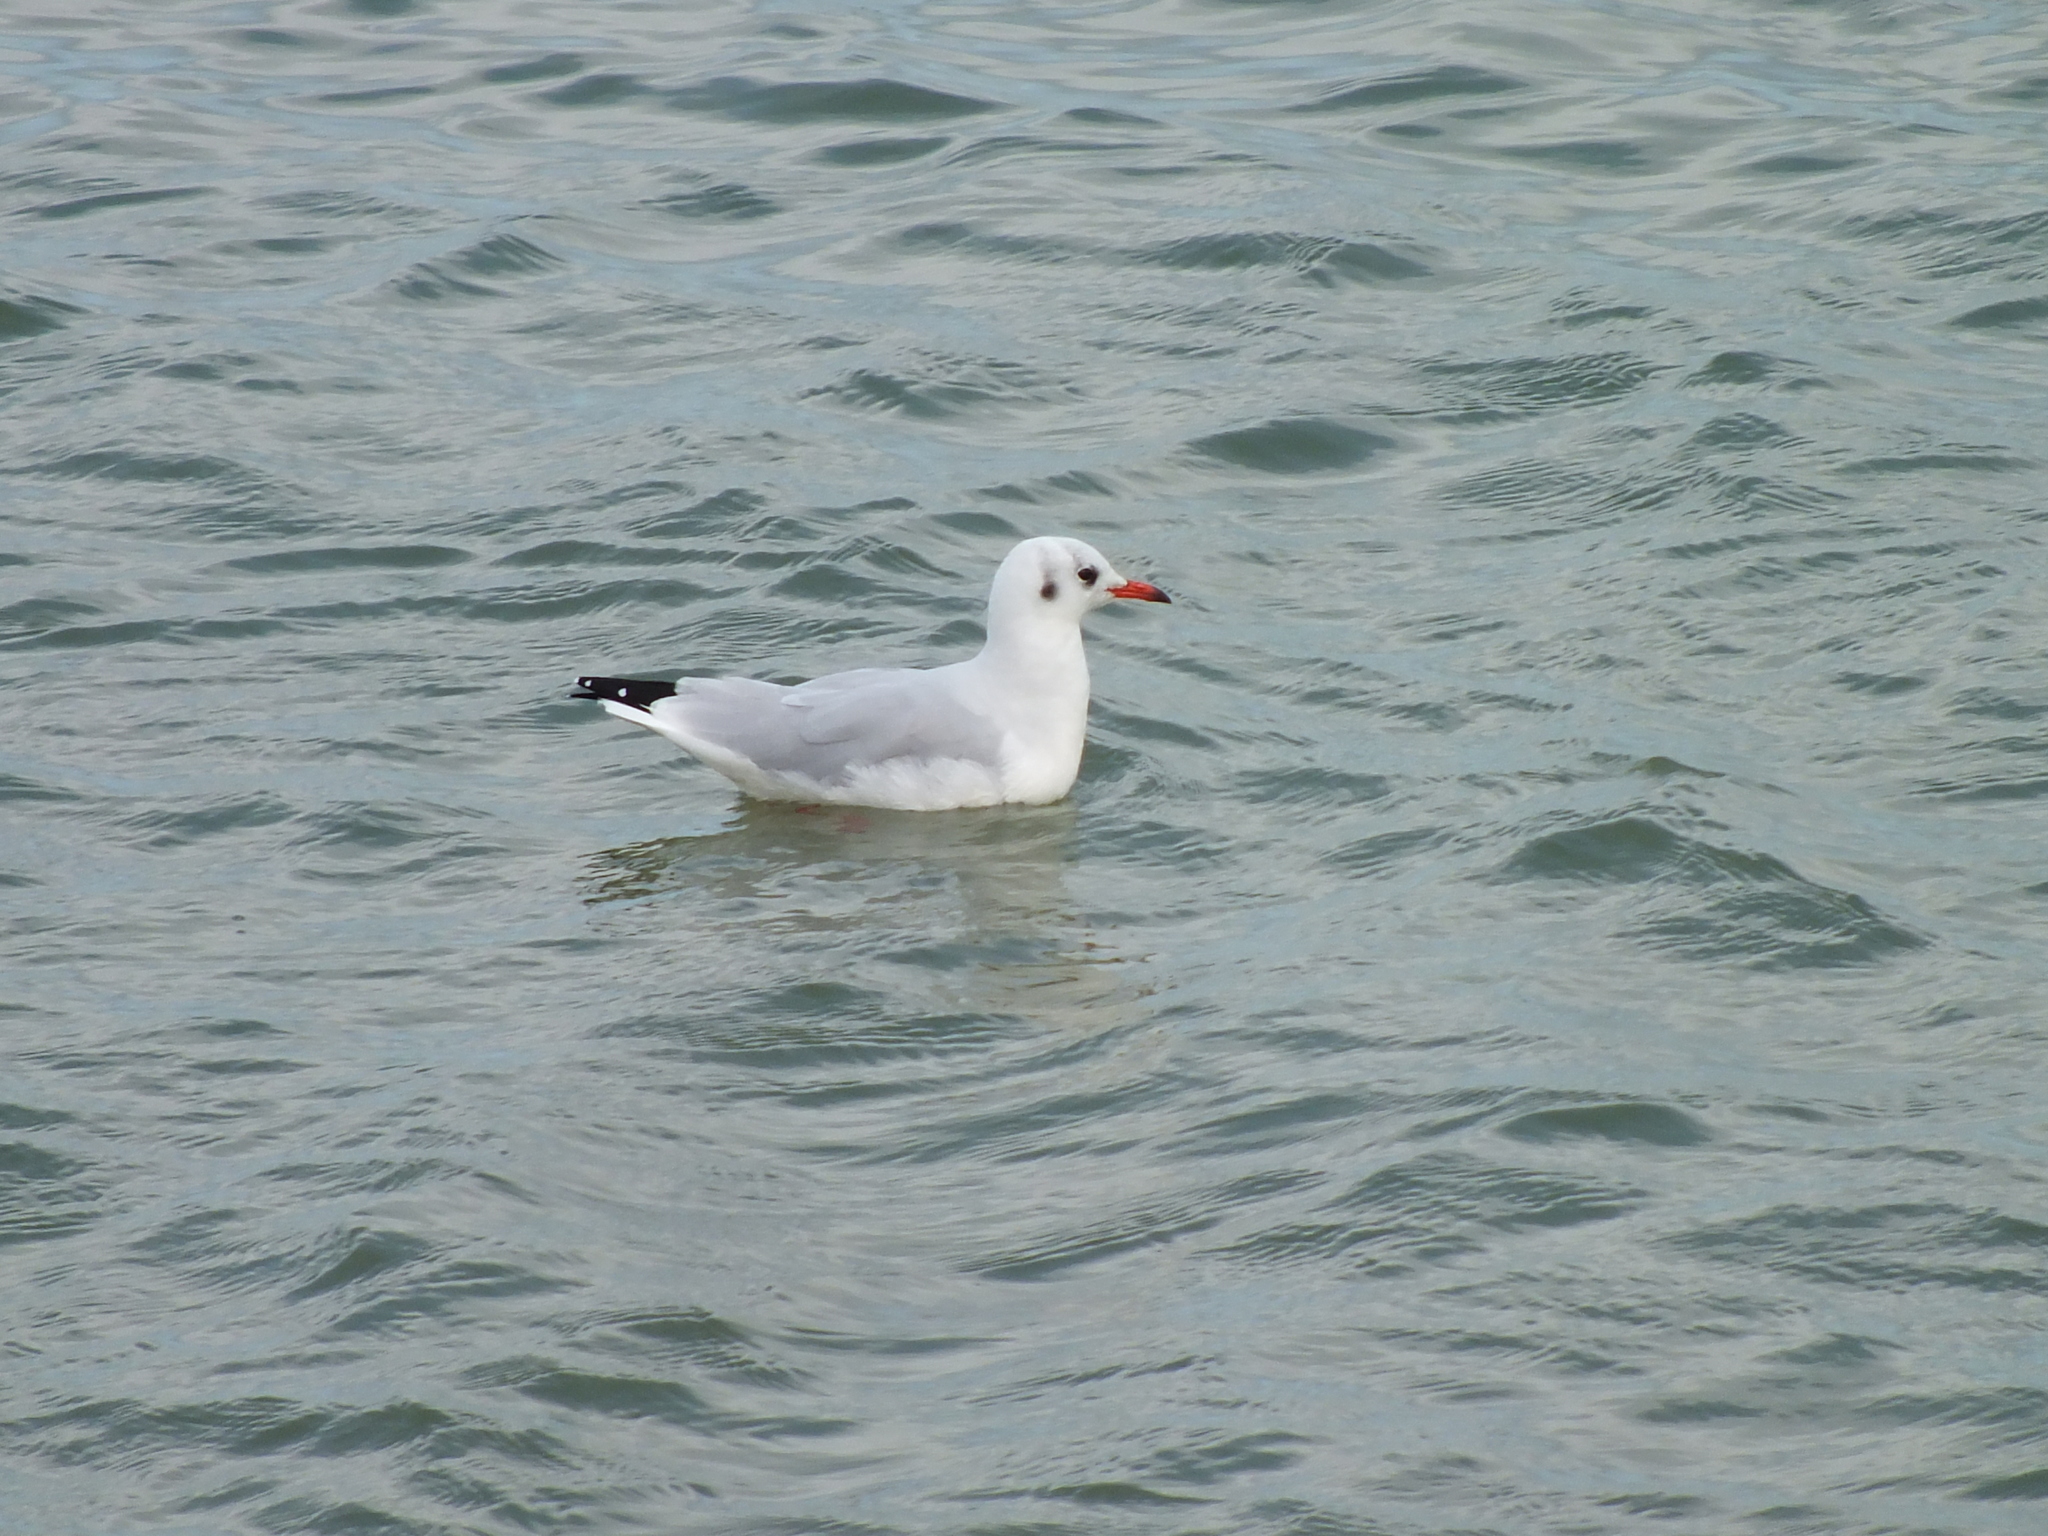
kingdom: Animalia
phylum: Chordata
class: Aves
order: Charadriiformes
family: Laridae
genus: Chroicocephalus
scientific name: Chroicocephalus ridibundus
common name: Black-headed gull
